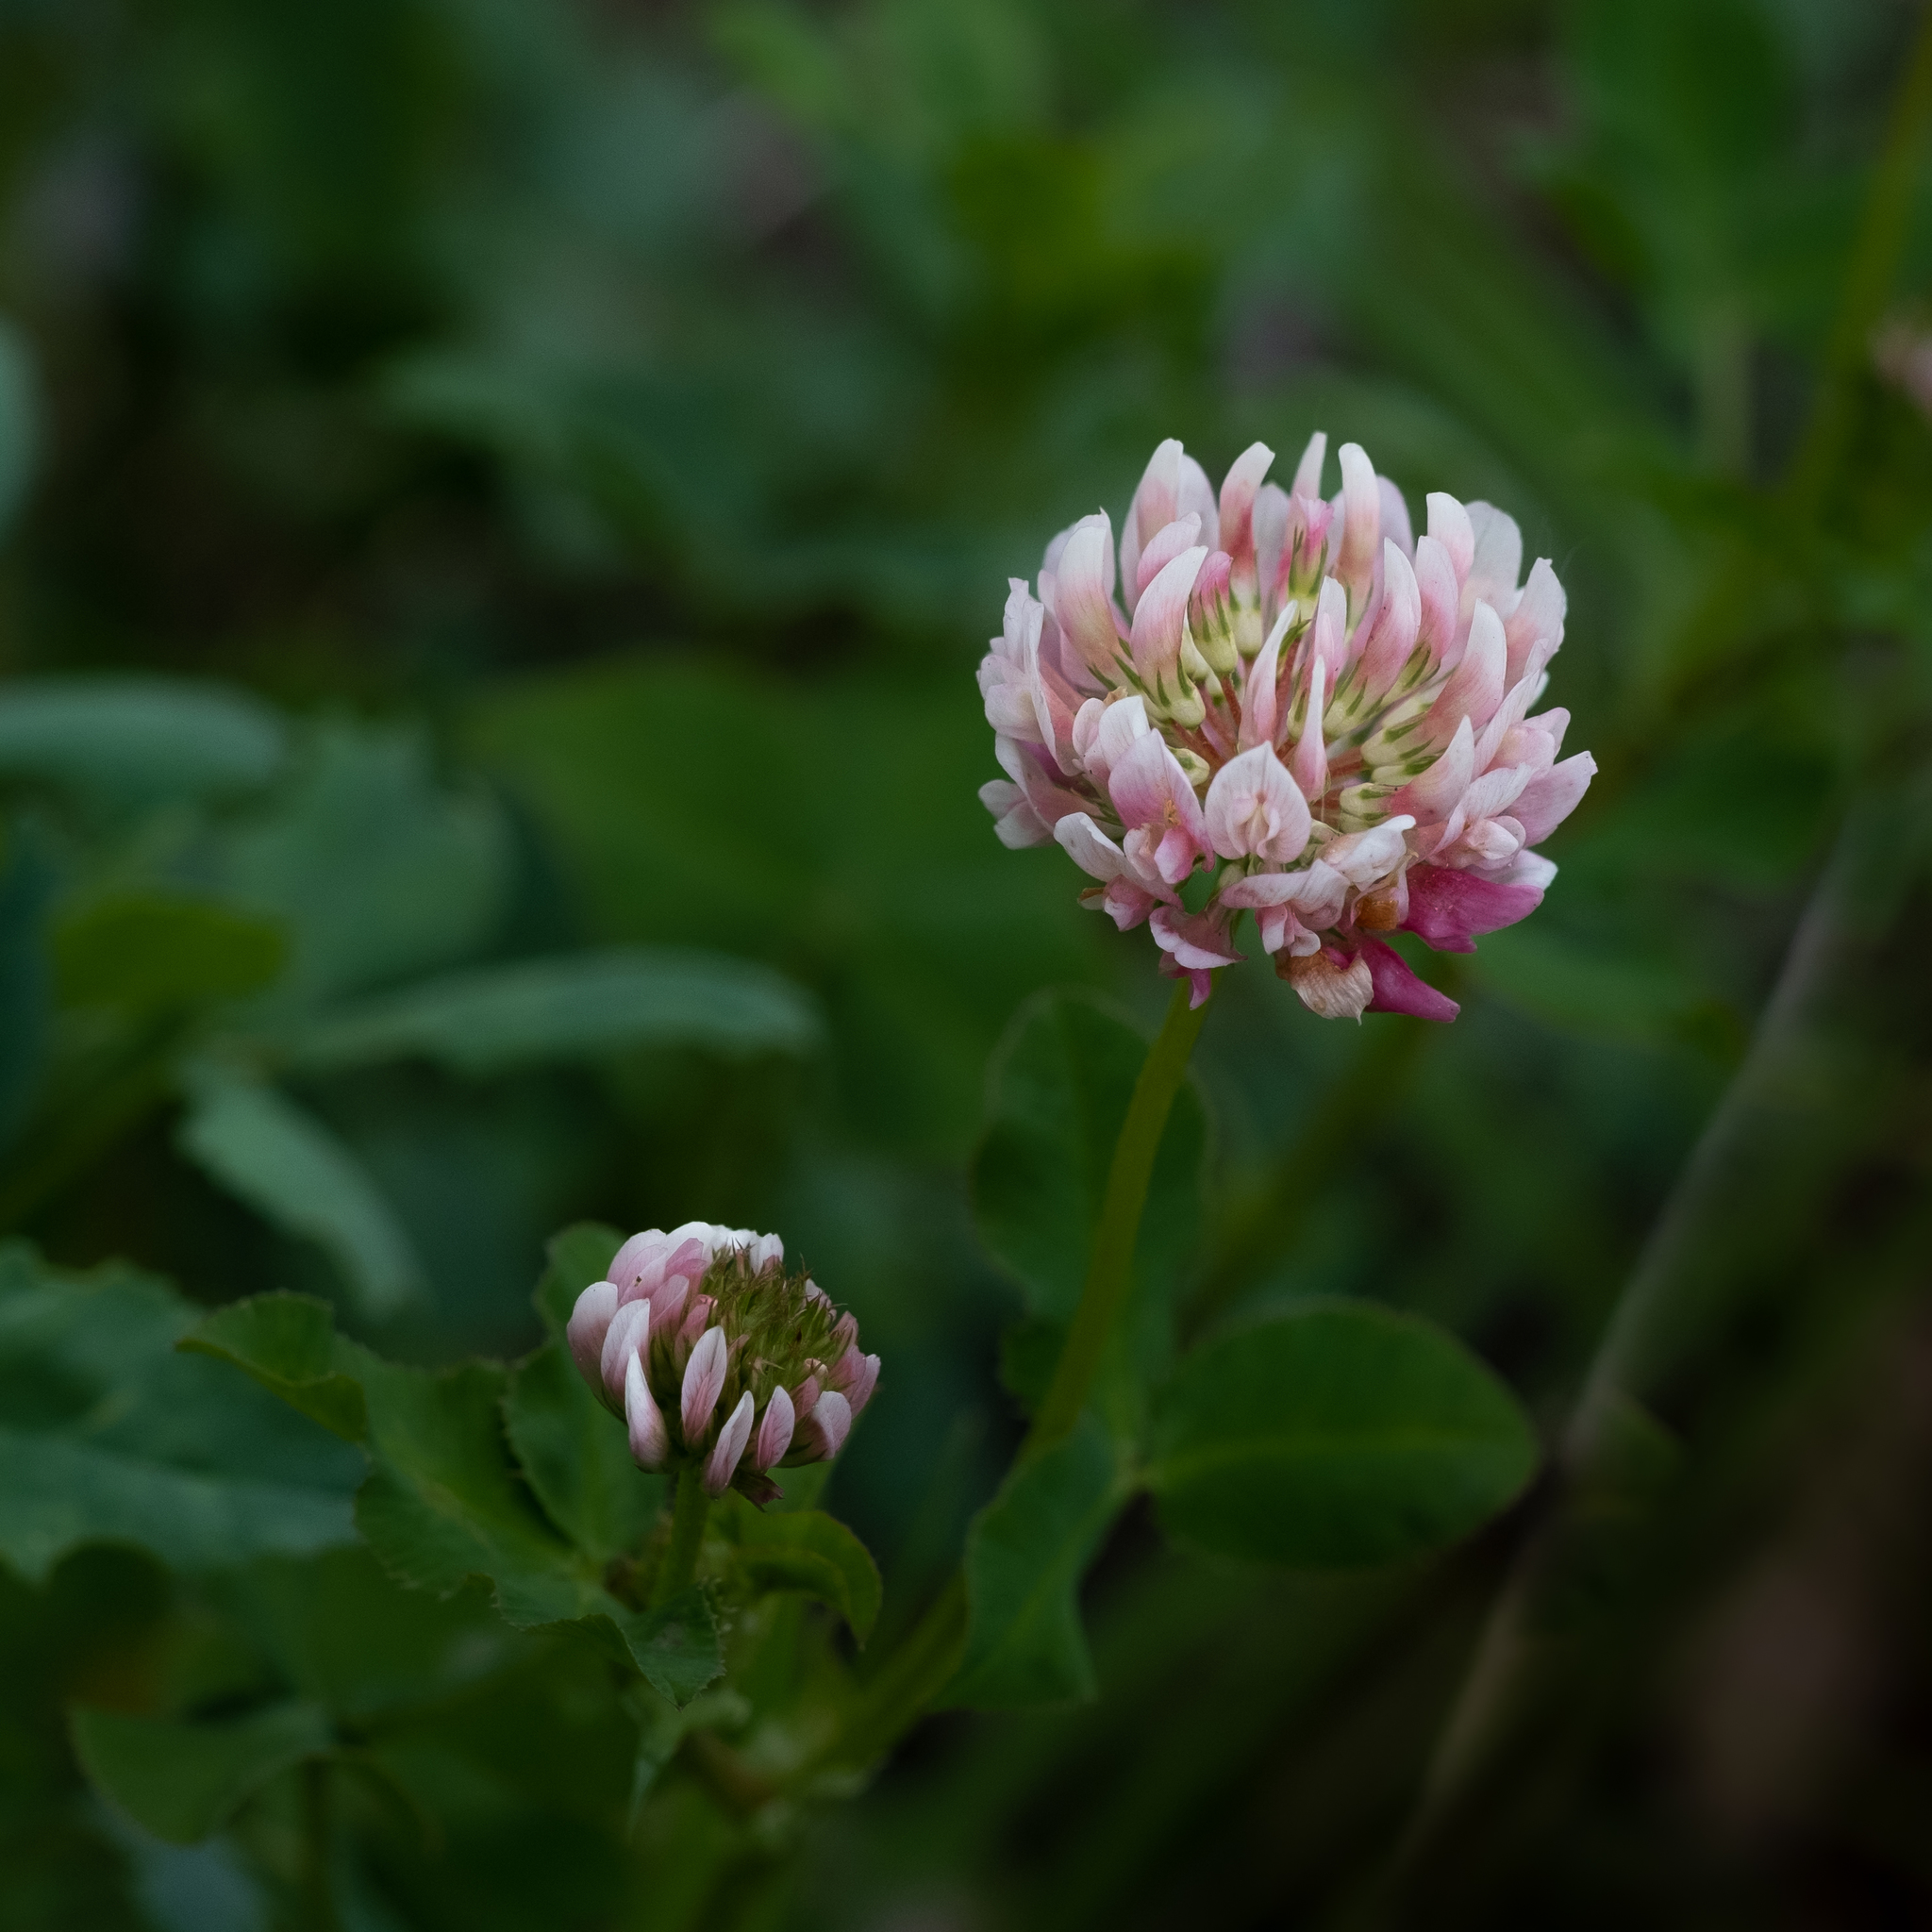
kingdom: Plantae
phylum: Tracheophyta
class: Magnoliopsida
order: Fabales
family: Fabaceae
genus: Trifolium
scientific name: Trifolium hybridum
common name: Alsike clover
